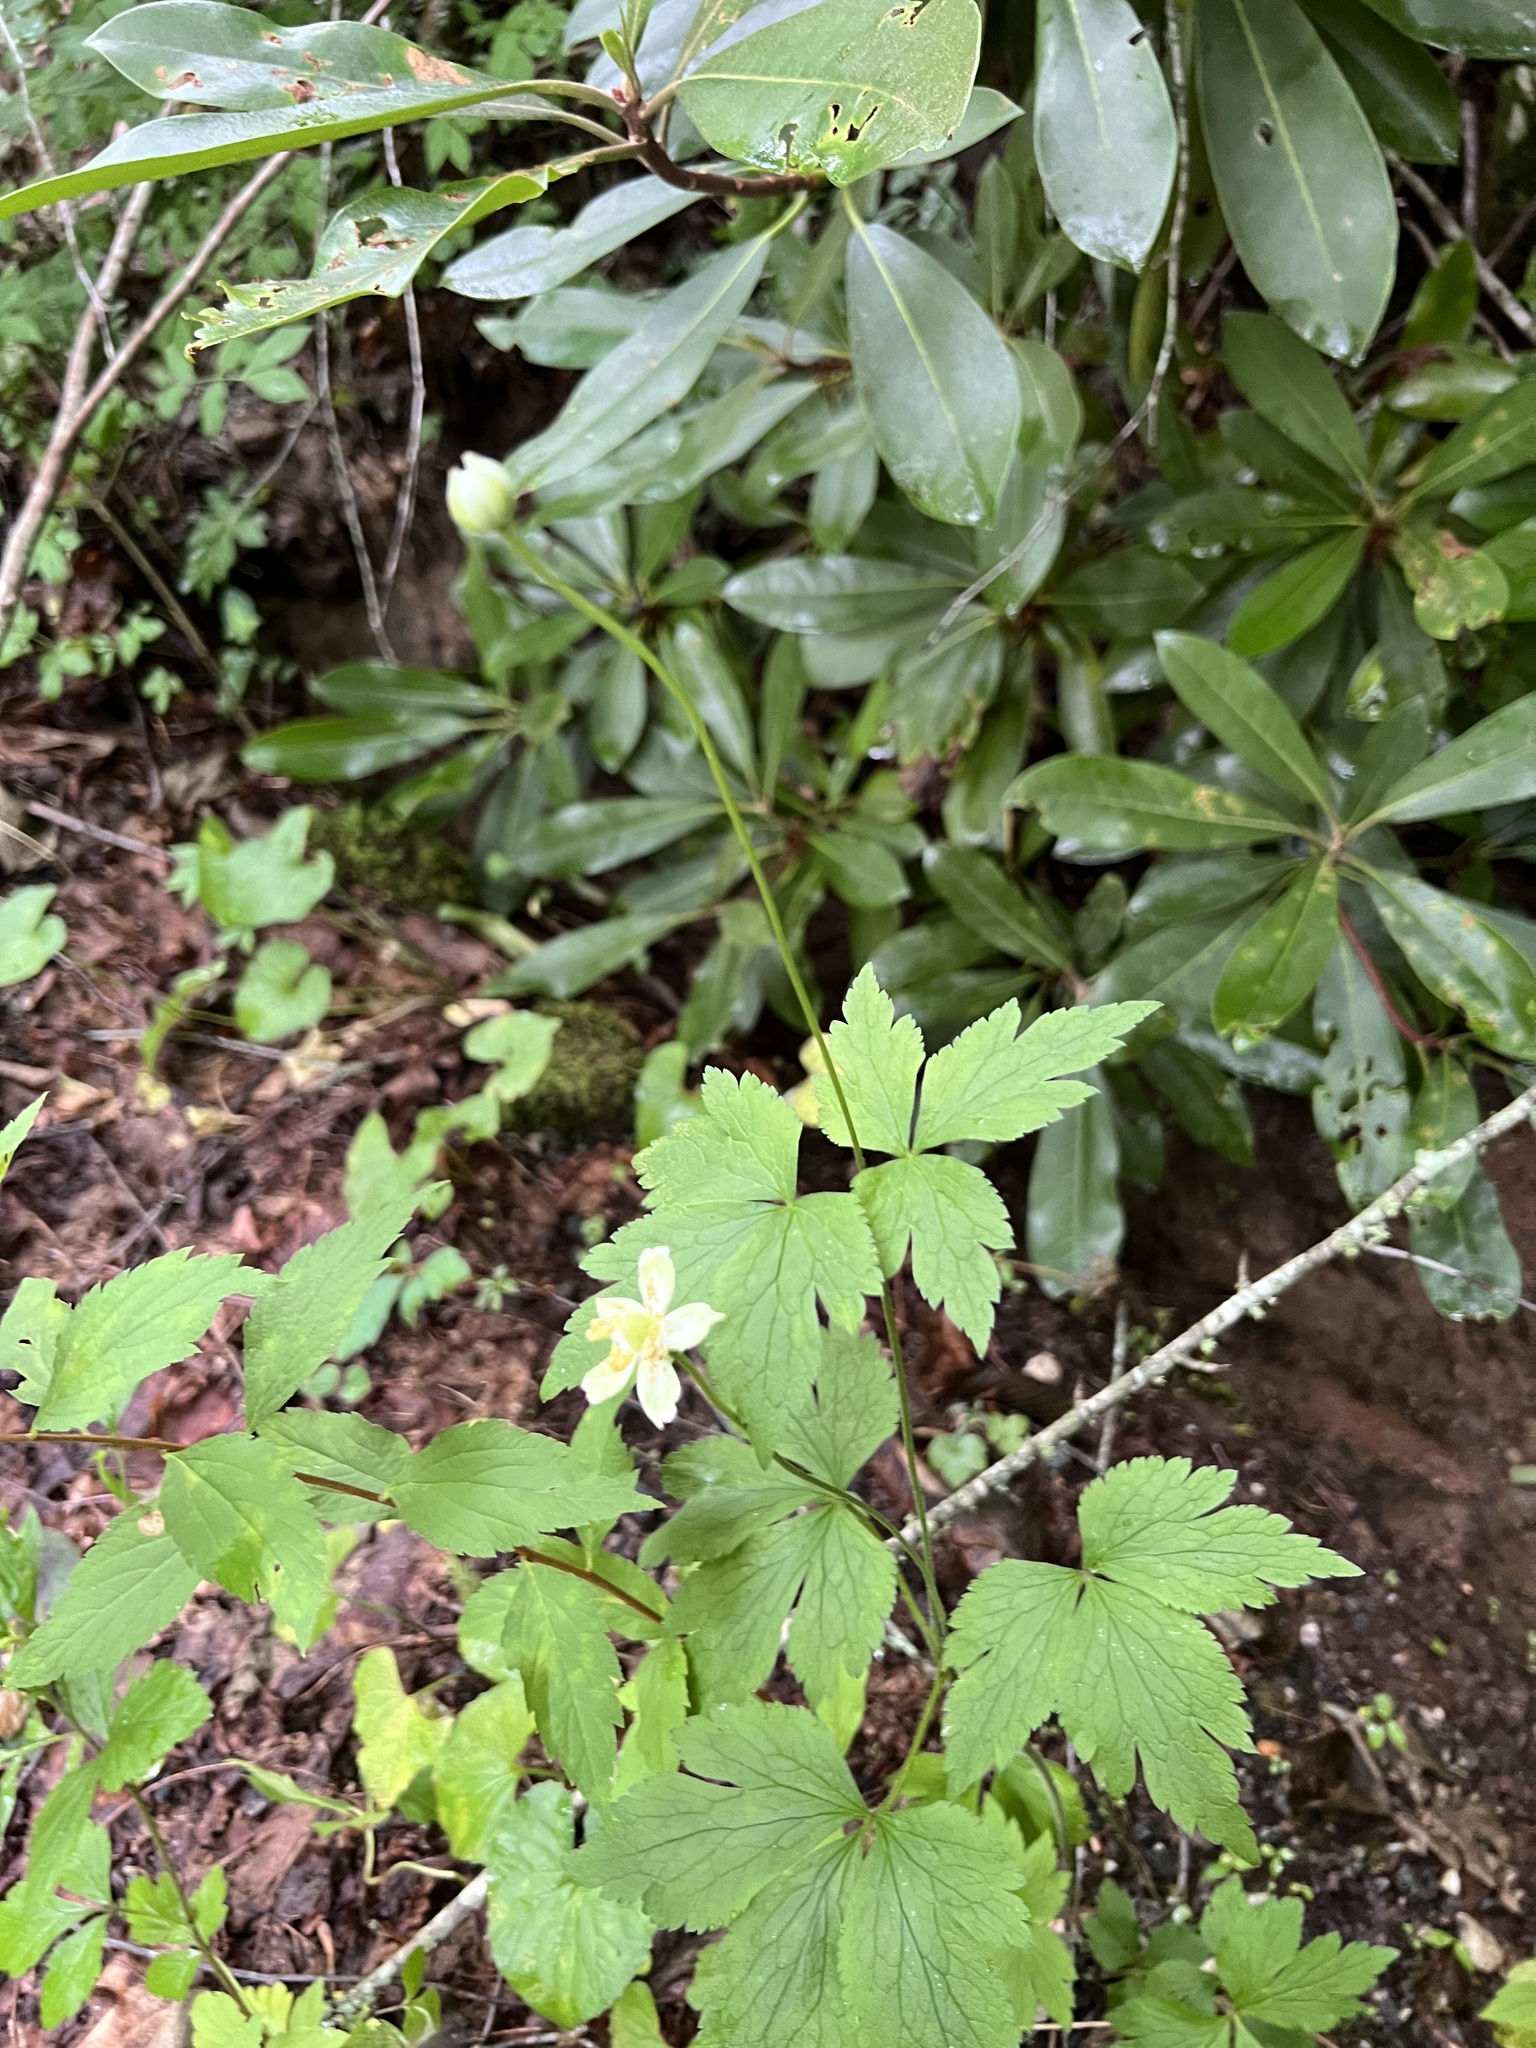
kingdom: Plantae
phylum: Tracheophyta
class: Magnoliopsida
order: Ranunculales
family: Ranunculaceae
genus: Anemone
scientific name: Anemone virginiana
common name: Tall anemone
